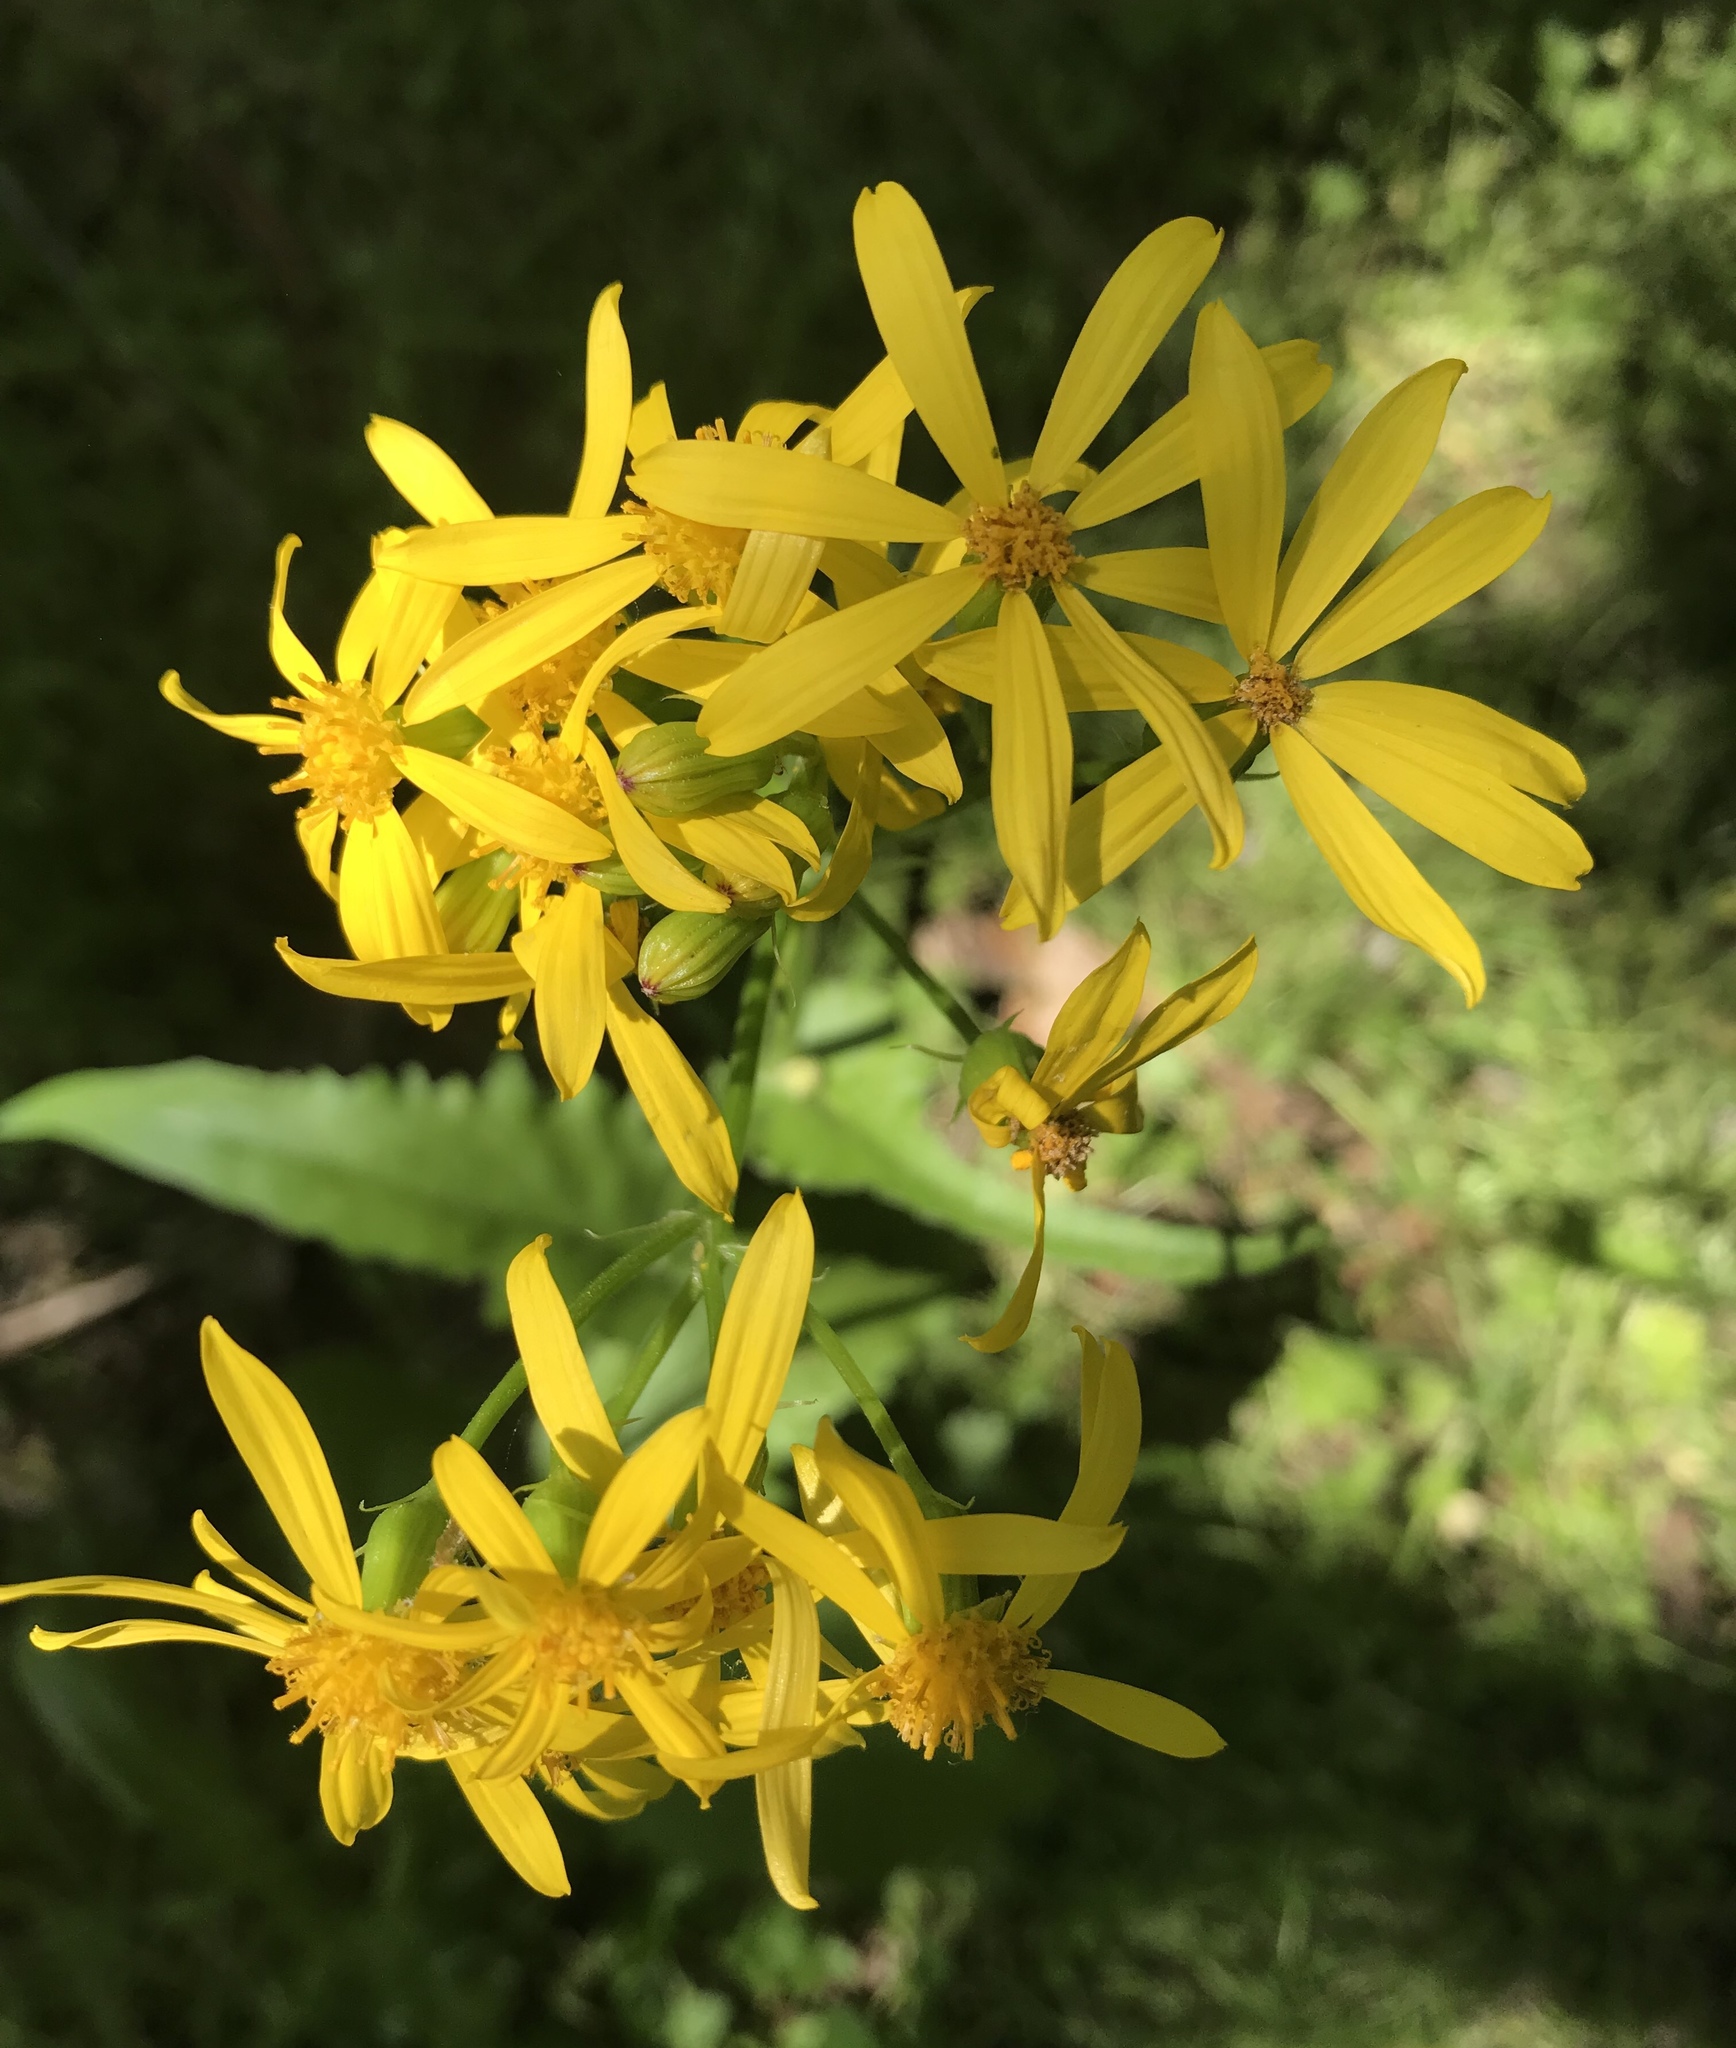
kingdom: Plantae
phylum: Tracheophyta
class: Magnoliopsida
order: Asterales
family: Asteraceae
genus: Senecio
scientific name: Senecio ampullaceus
